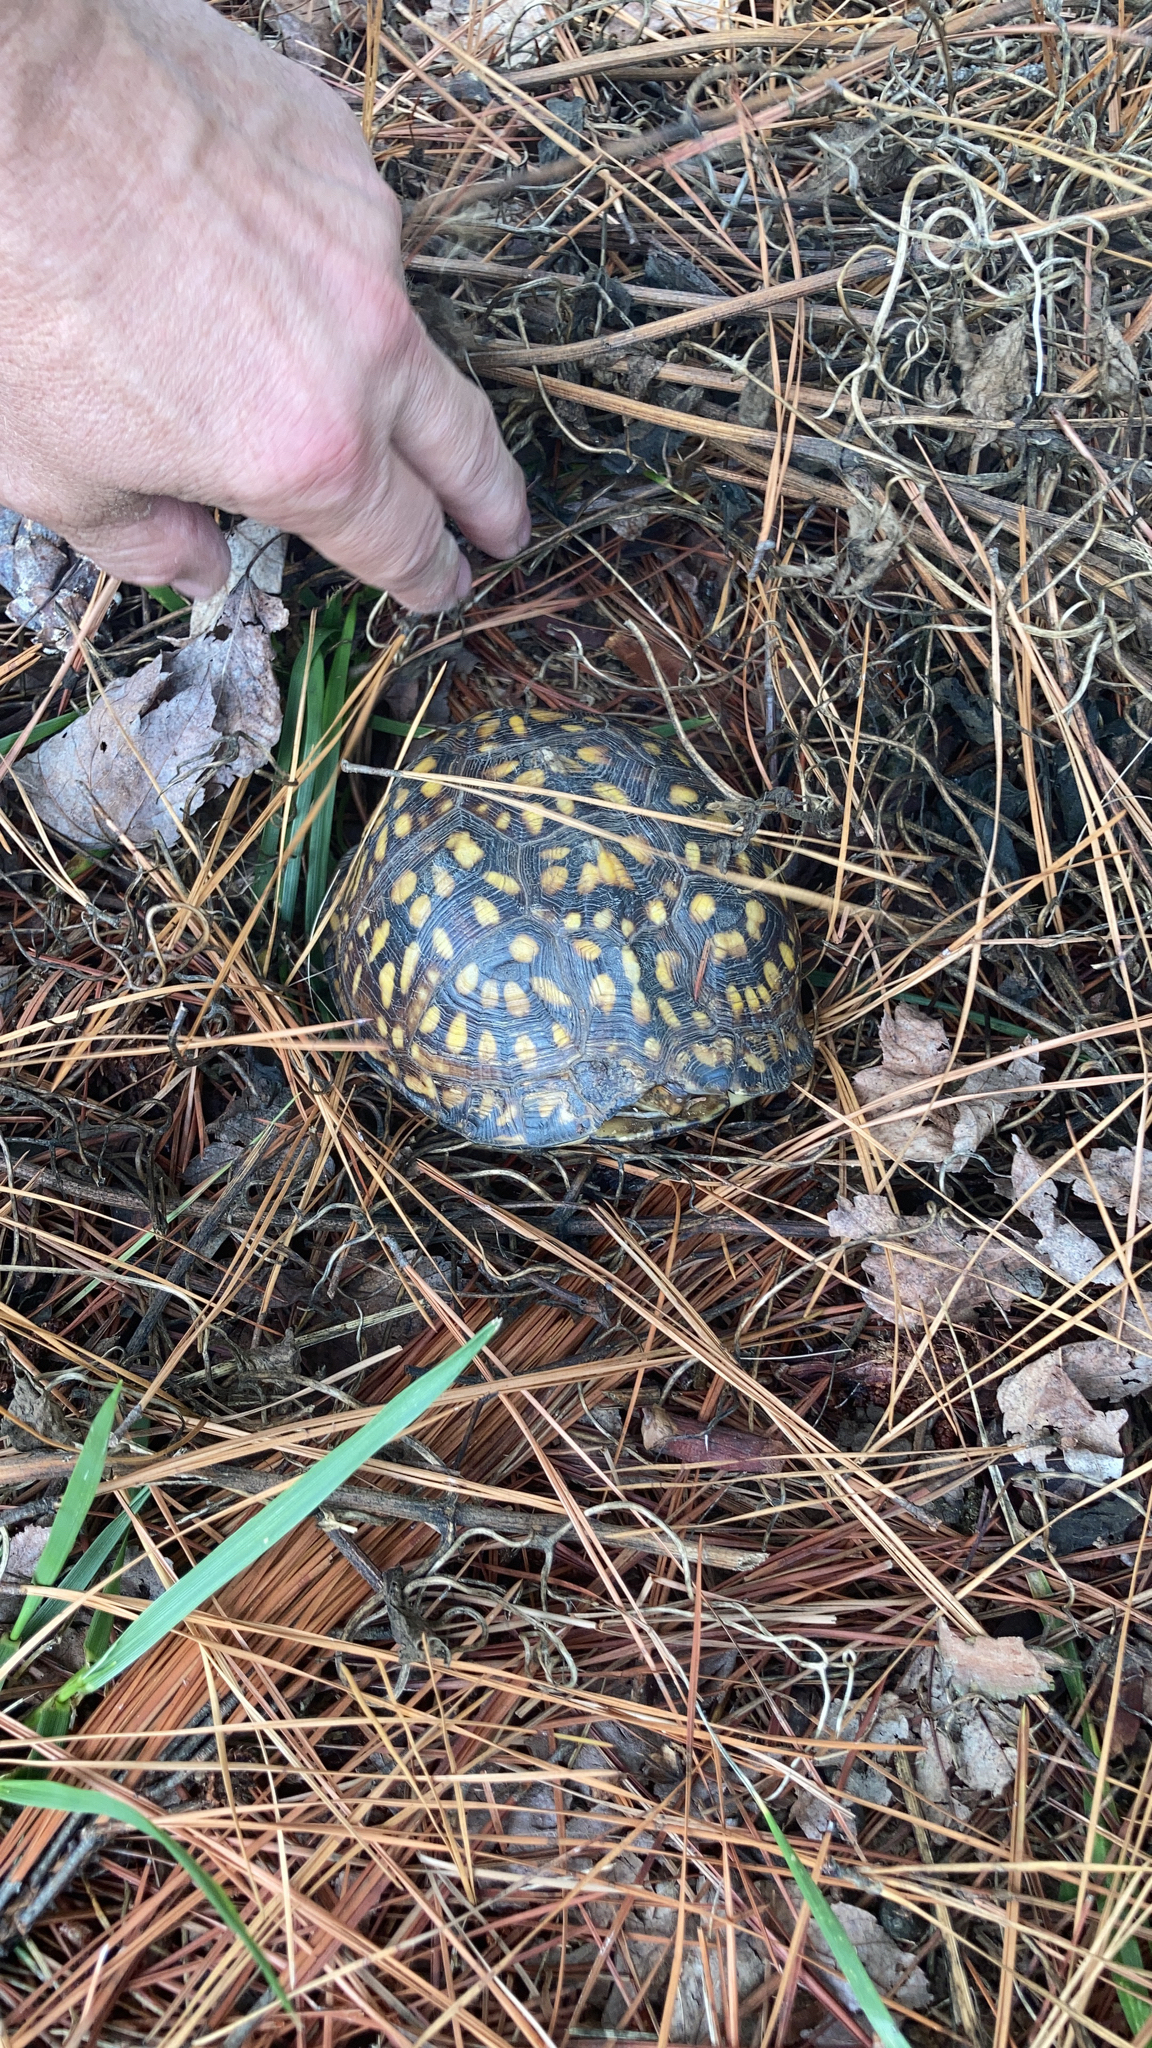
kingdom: Animalia
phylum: Chordata
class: Testudines
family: Emydidae
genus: Terrapene
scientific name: Terrapene carolina
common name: Common box turtle
